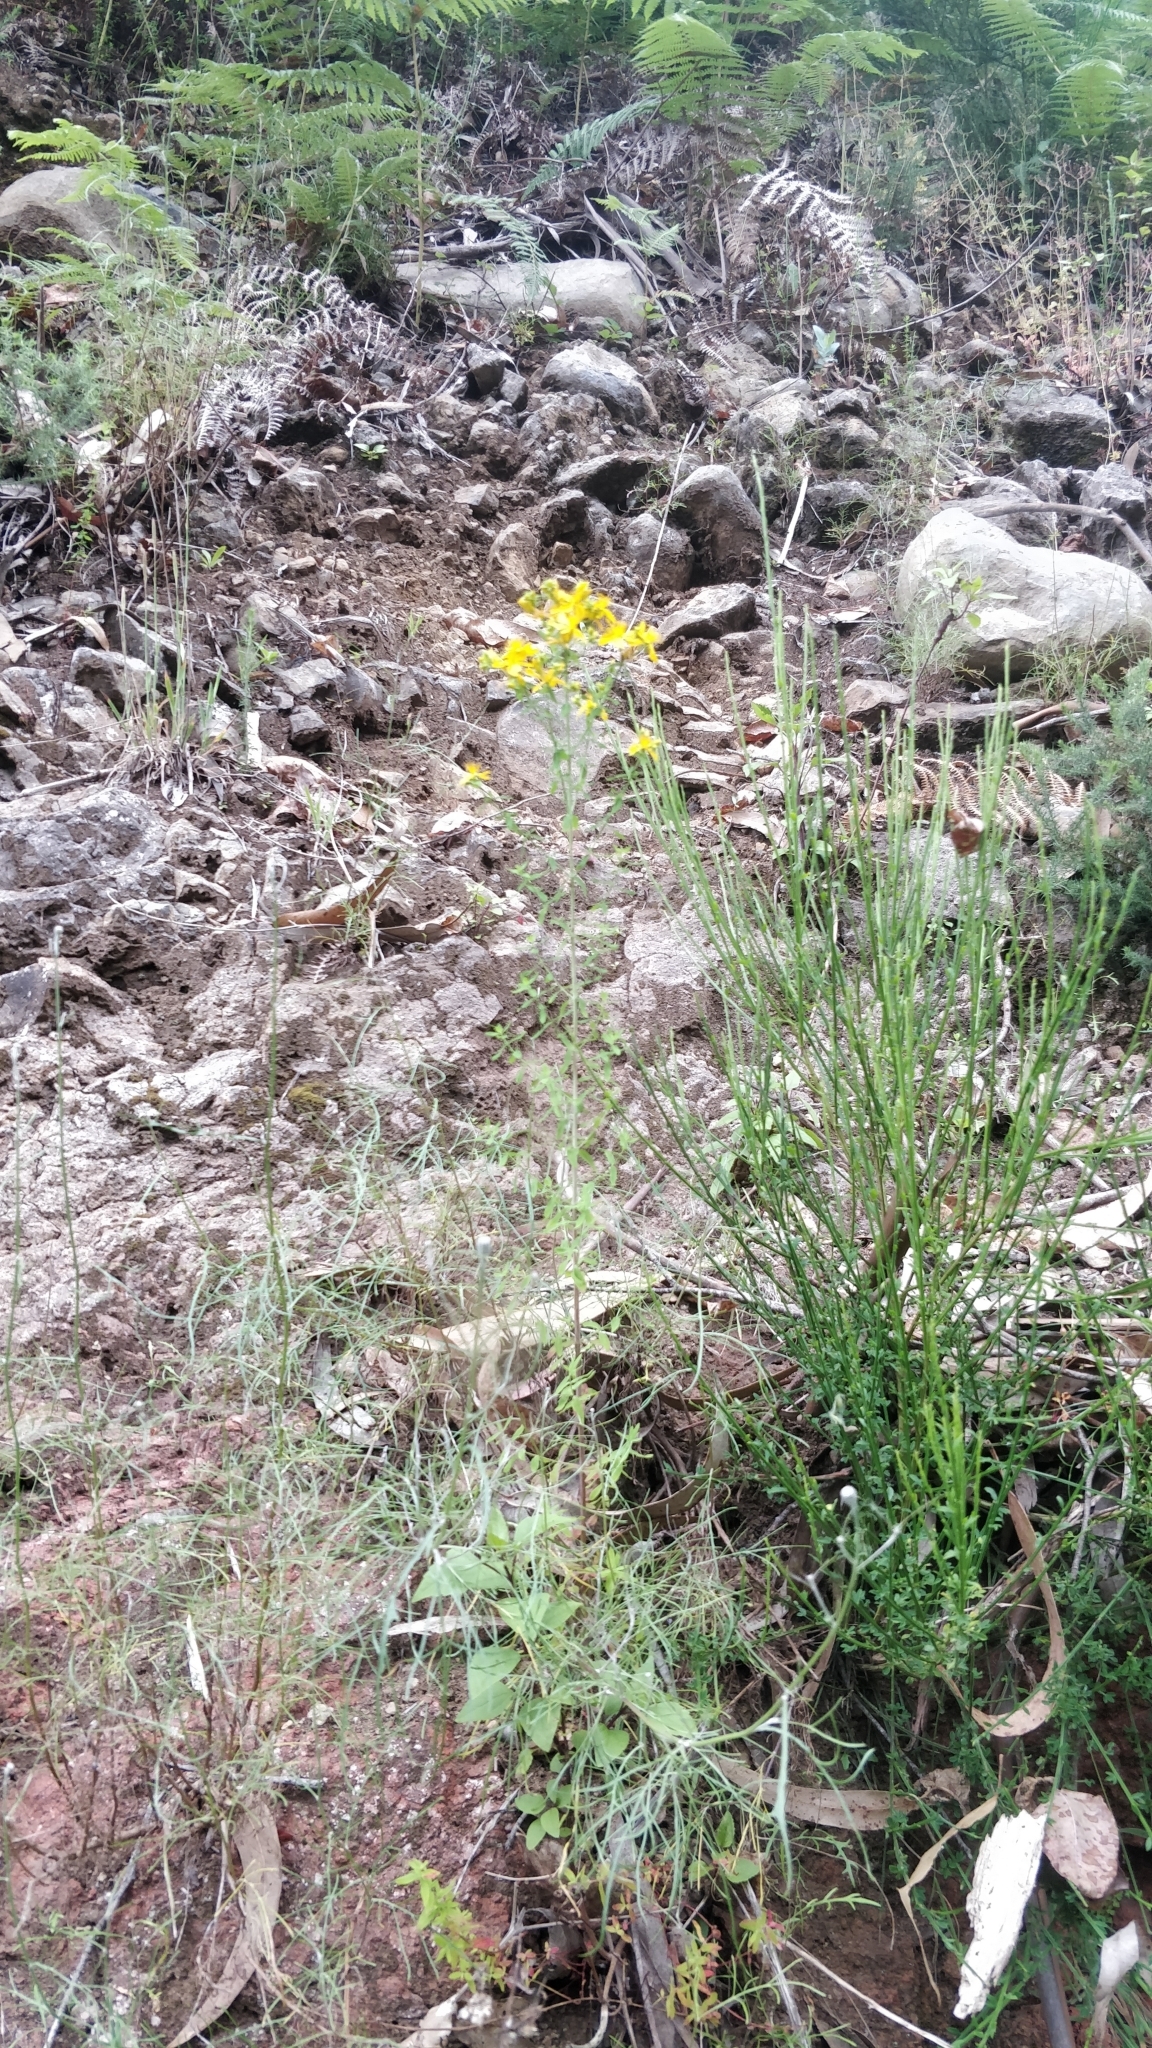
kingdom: Plantae
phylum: Tracheophyta
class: Magnoliopsida
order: Malpighiales
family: Hypericaceae
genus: Hypericum
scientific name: Hypericum perforatum
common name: Common st. johnswort
